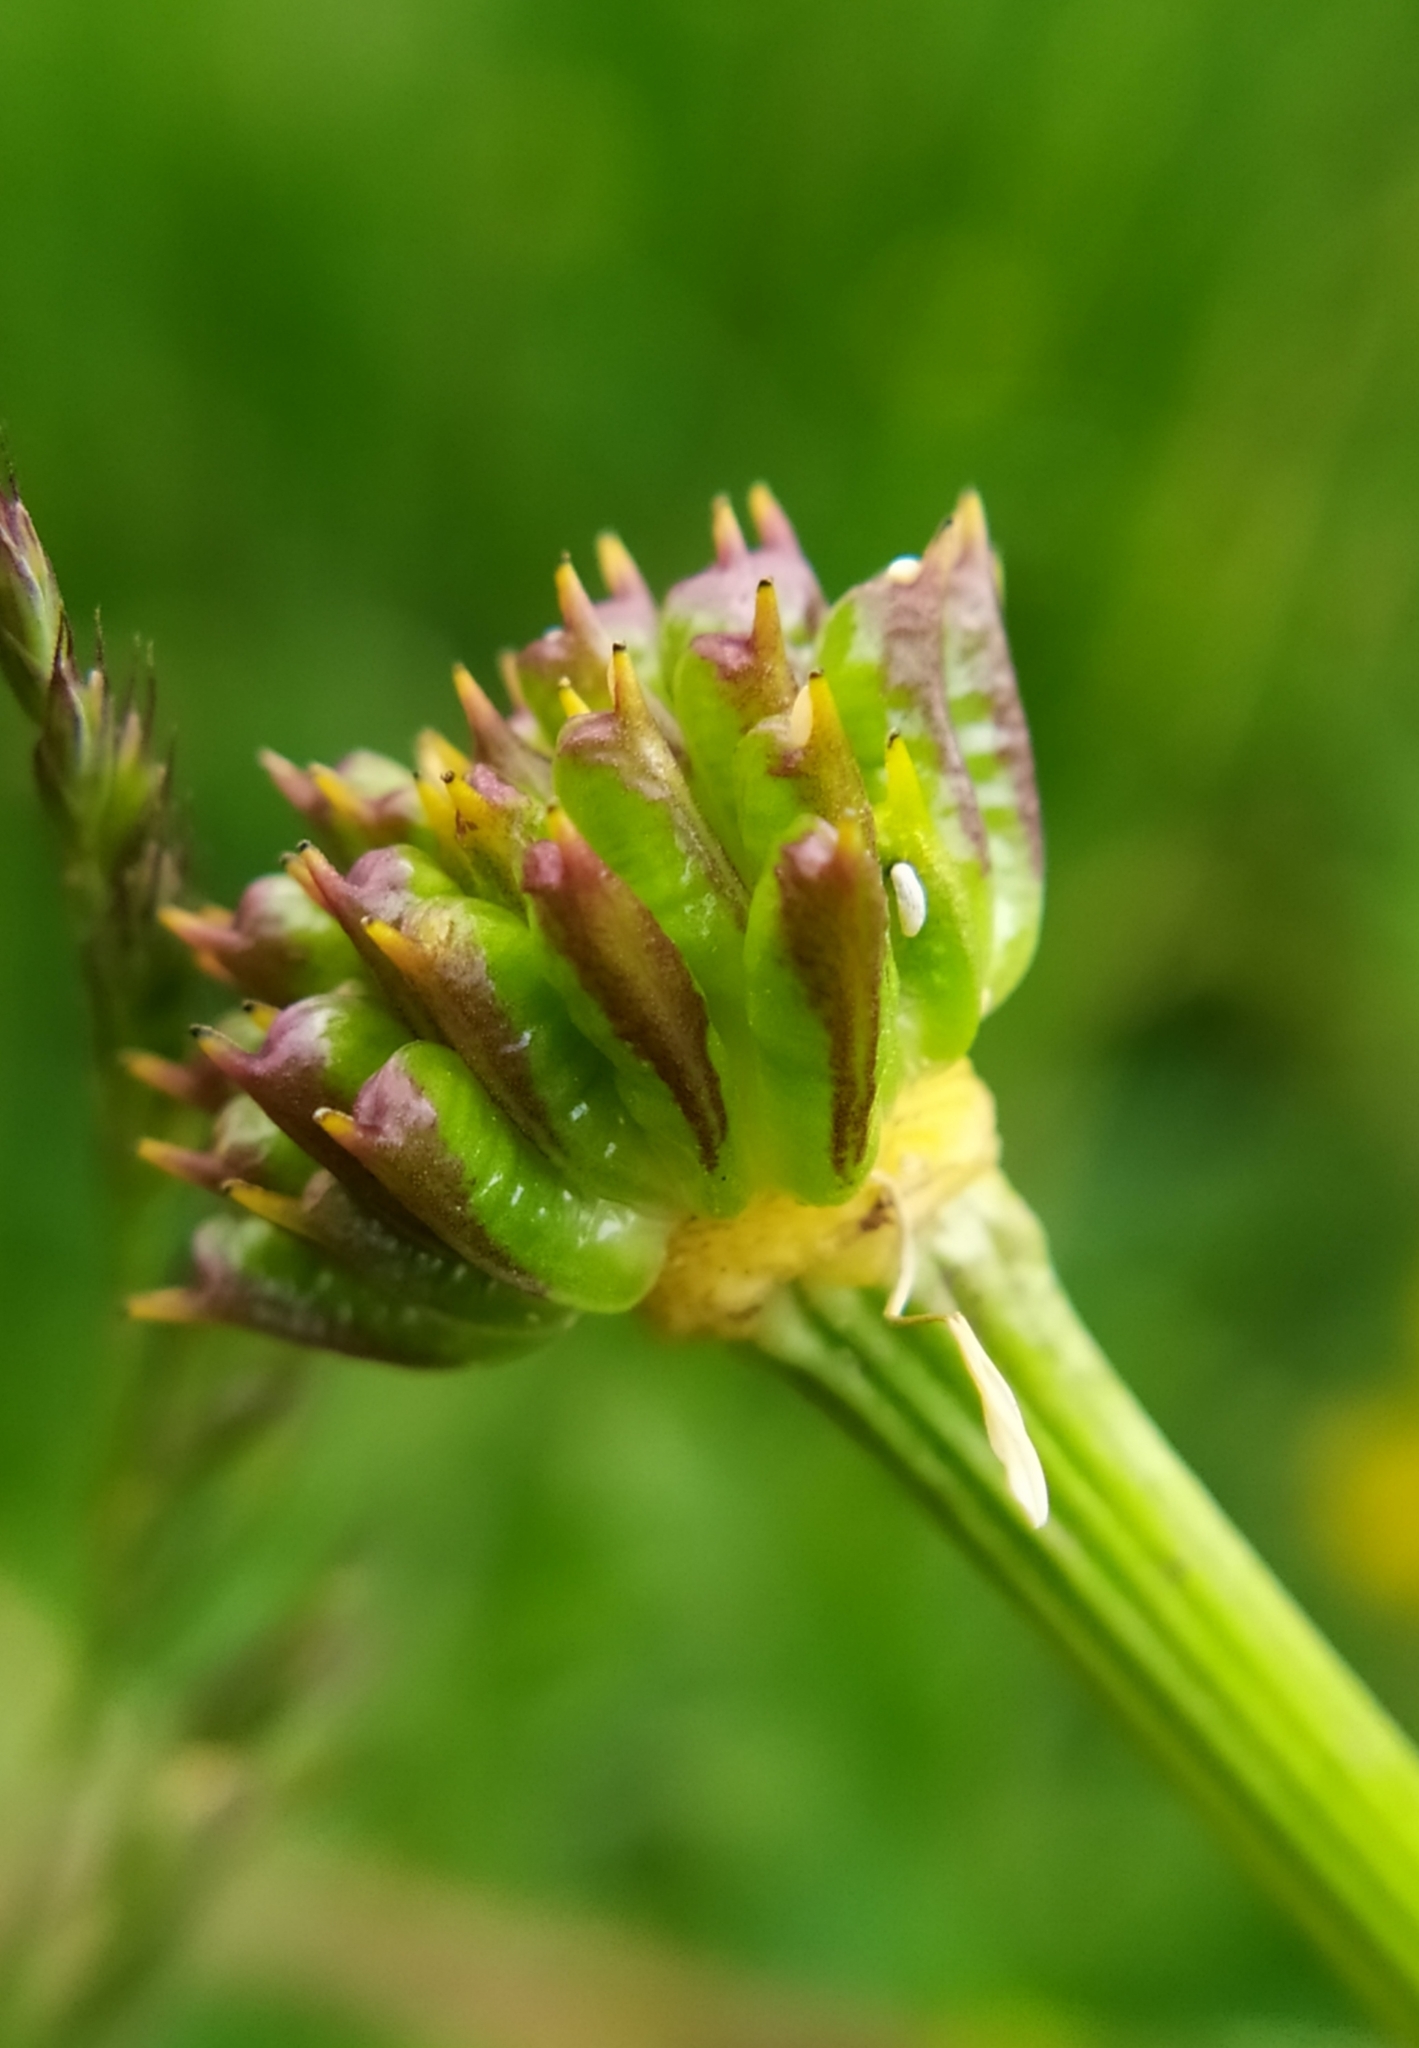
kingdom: Plantae
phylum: Tracheophyta
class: Magnoliopsida
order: Ranunculales
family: Ranunculaceae
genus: Trollius
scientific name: Trollius europaeus
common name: European globeflower
